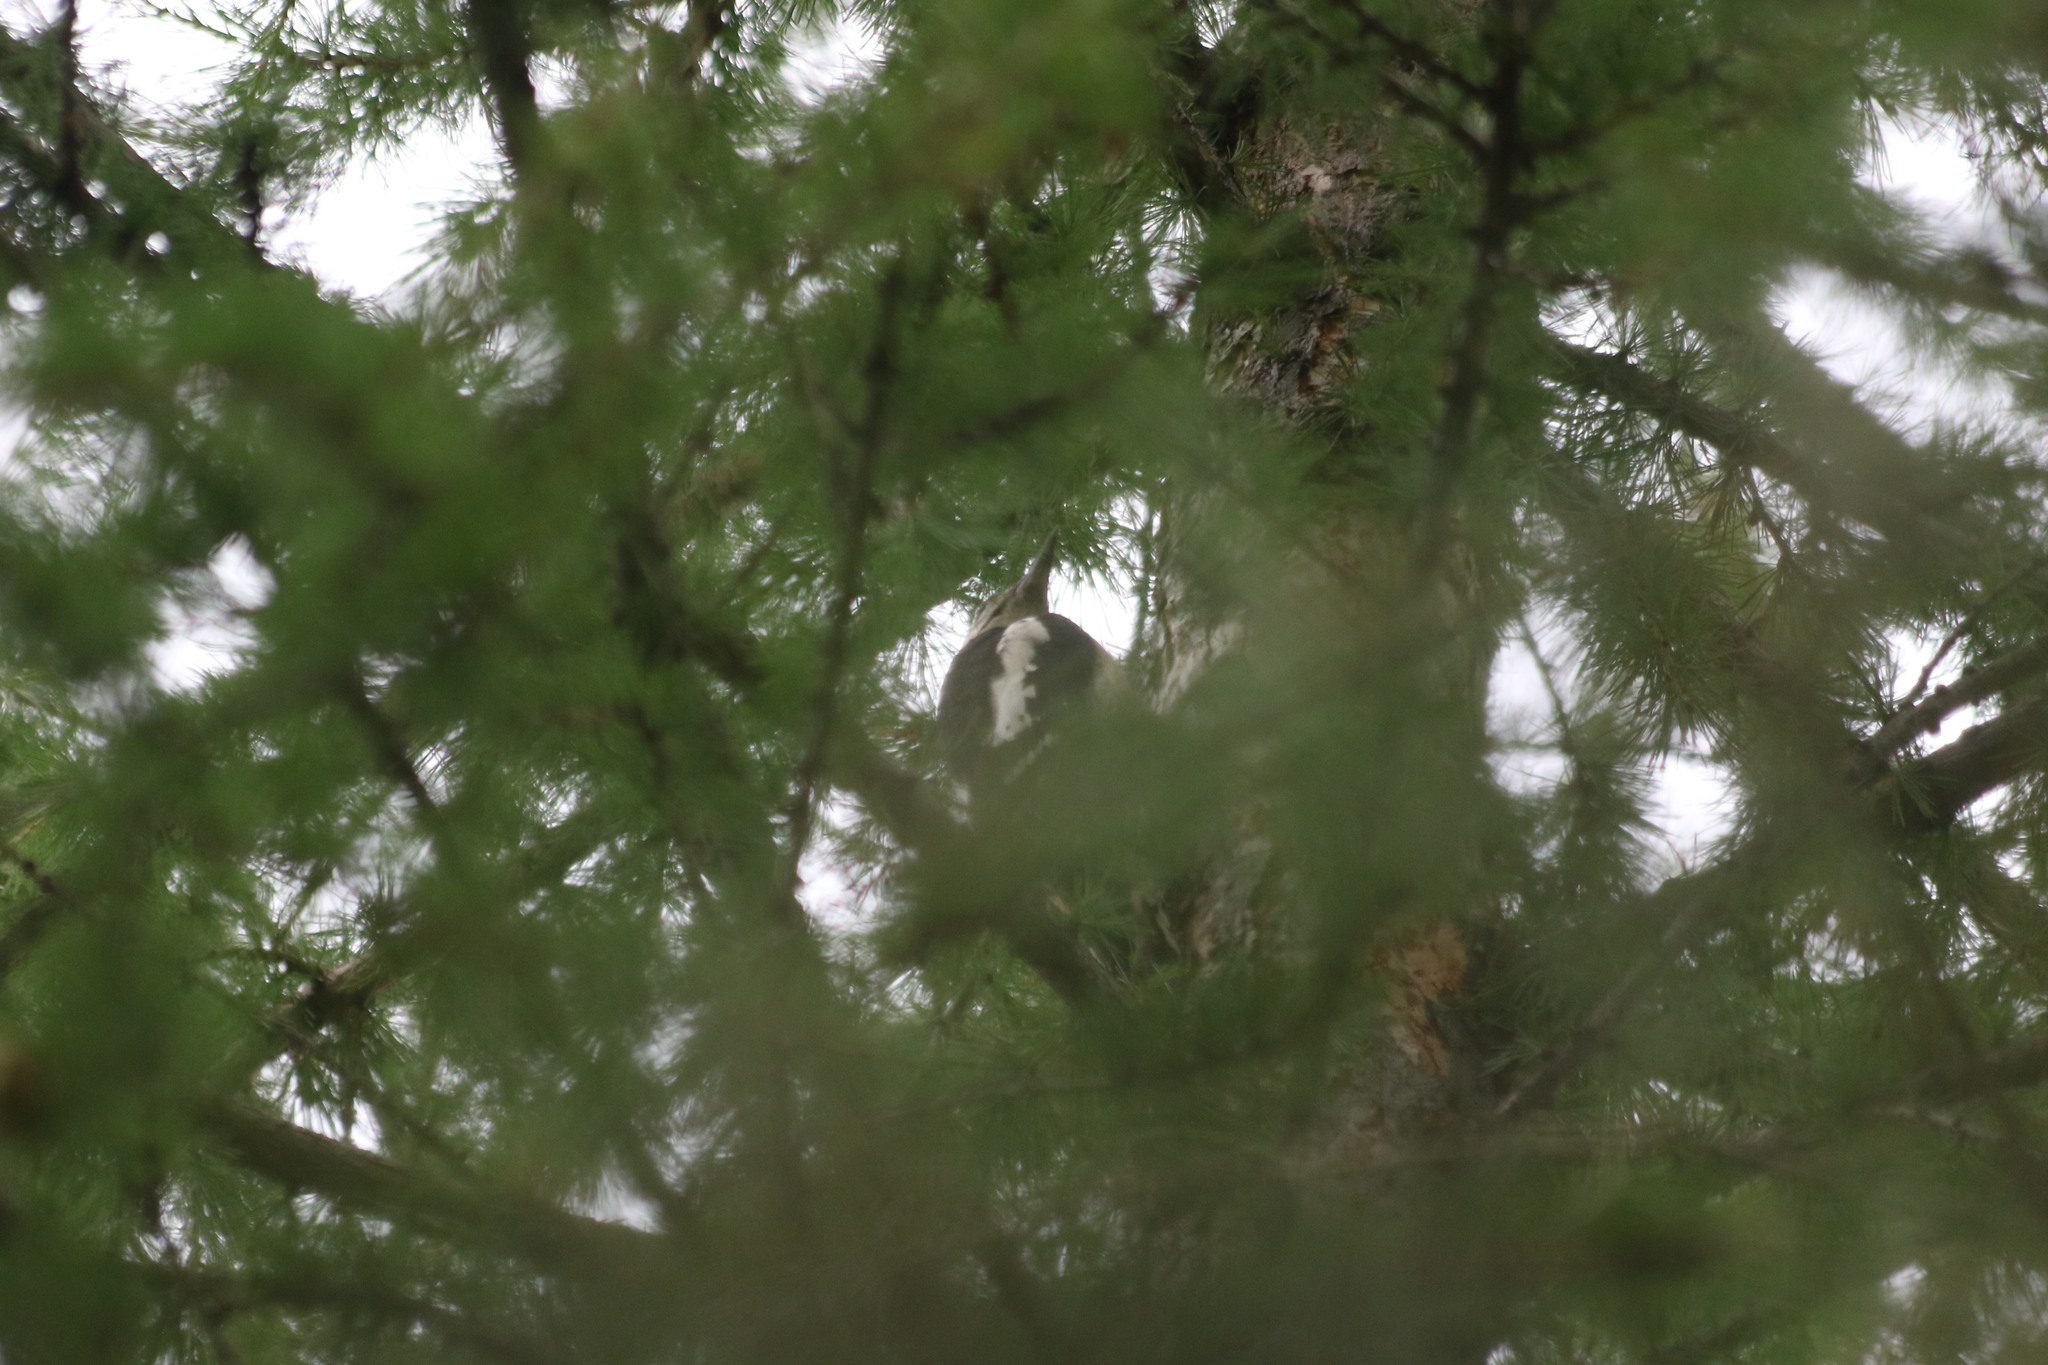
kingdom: Animalia
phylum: Chordata
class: Aves
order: Piciformes
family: Picidae
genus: Dendrocopos
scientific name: Dendrocopos major
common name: Great spotted woodpecker
